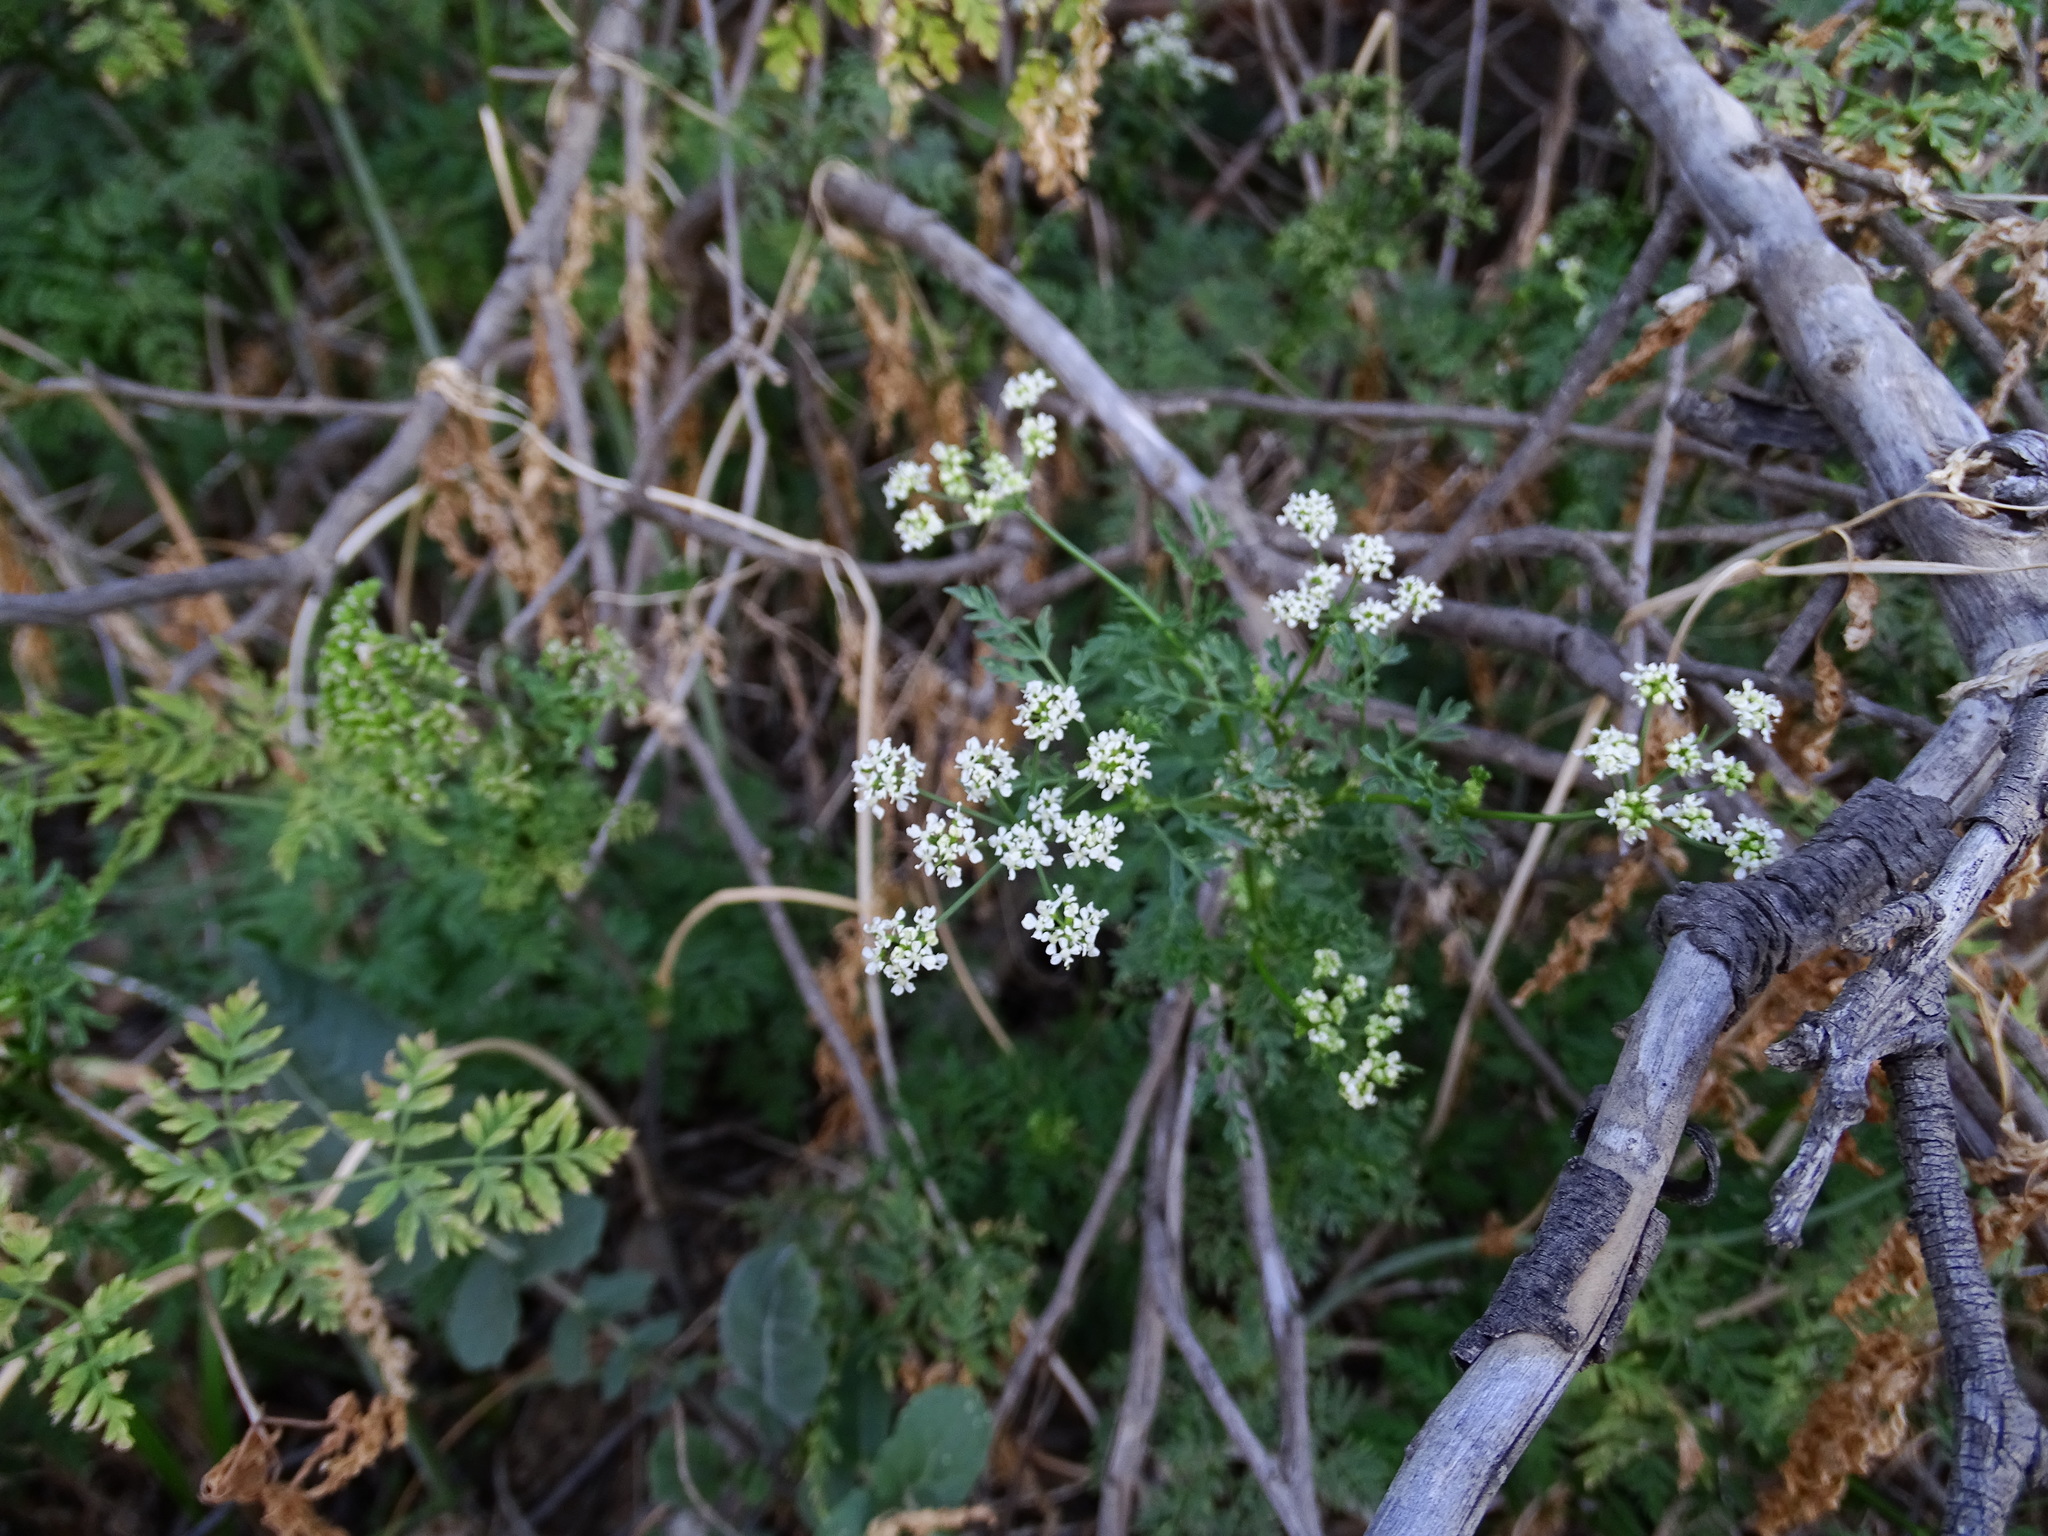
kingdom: Plantae
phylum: Tracheophyta
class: Magnoliopsida
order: Apiales
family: Apiaceae
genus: Conium
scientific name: Conium maculatum
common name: Hemlock
